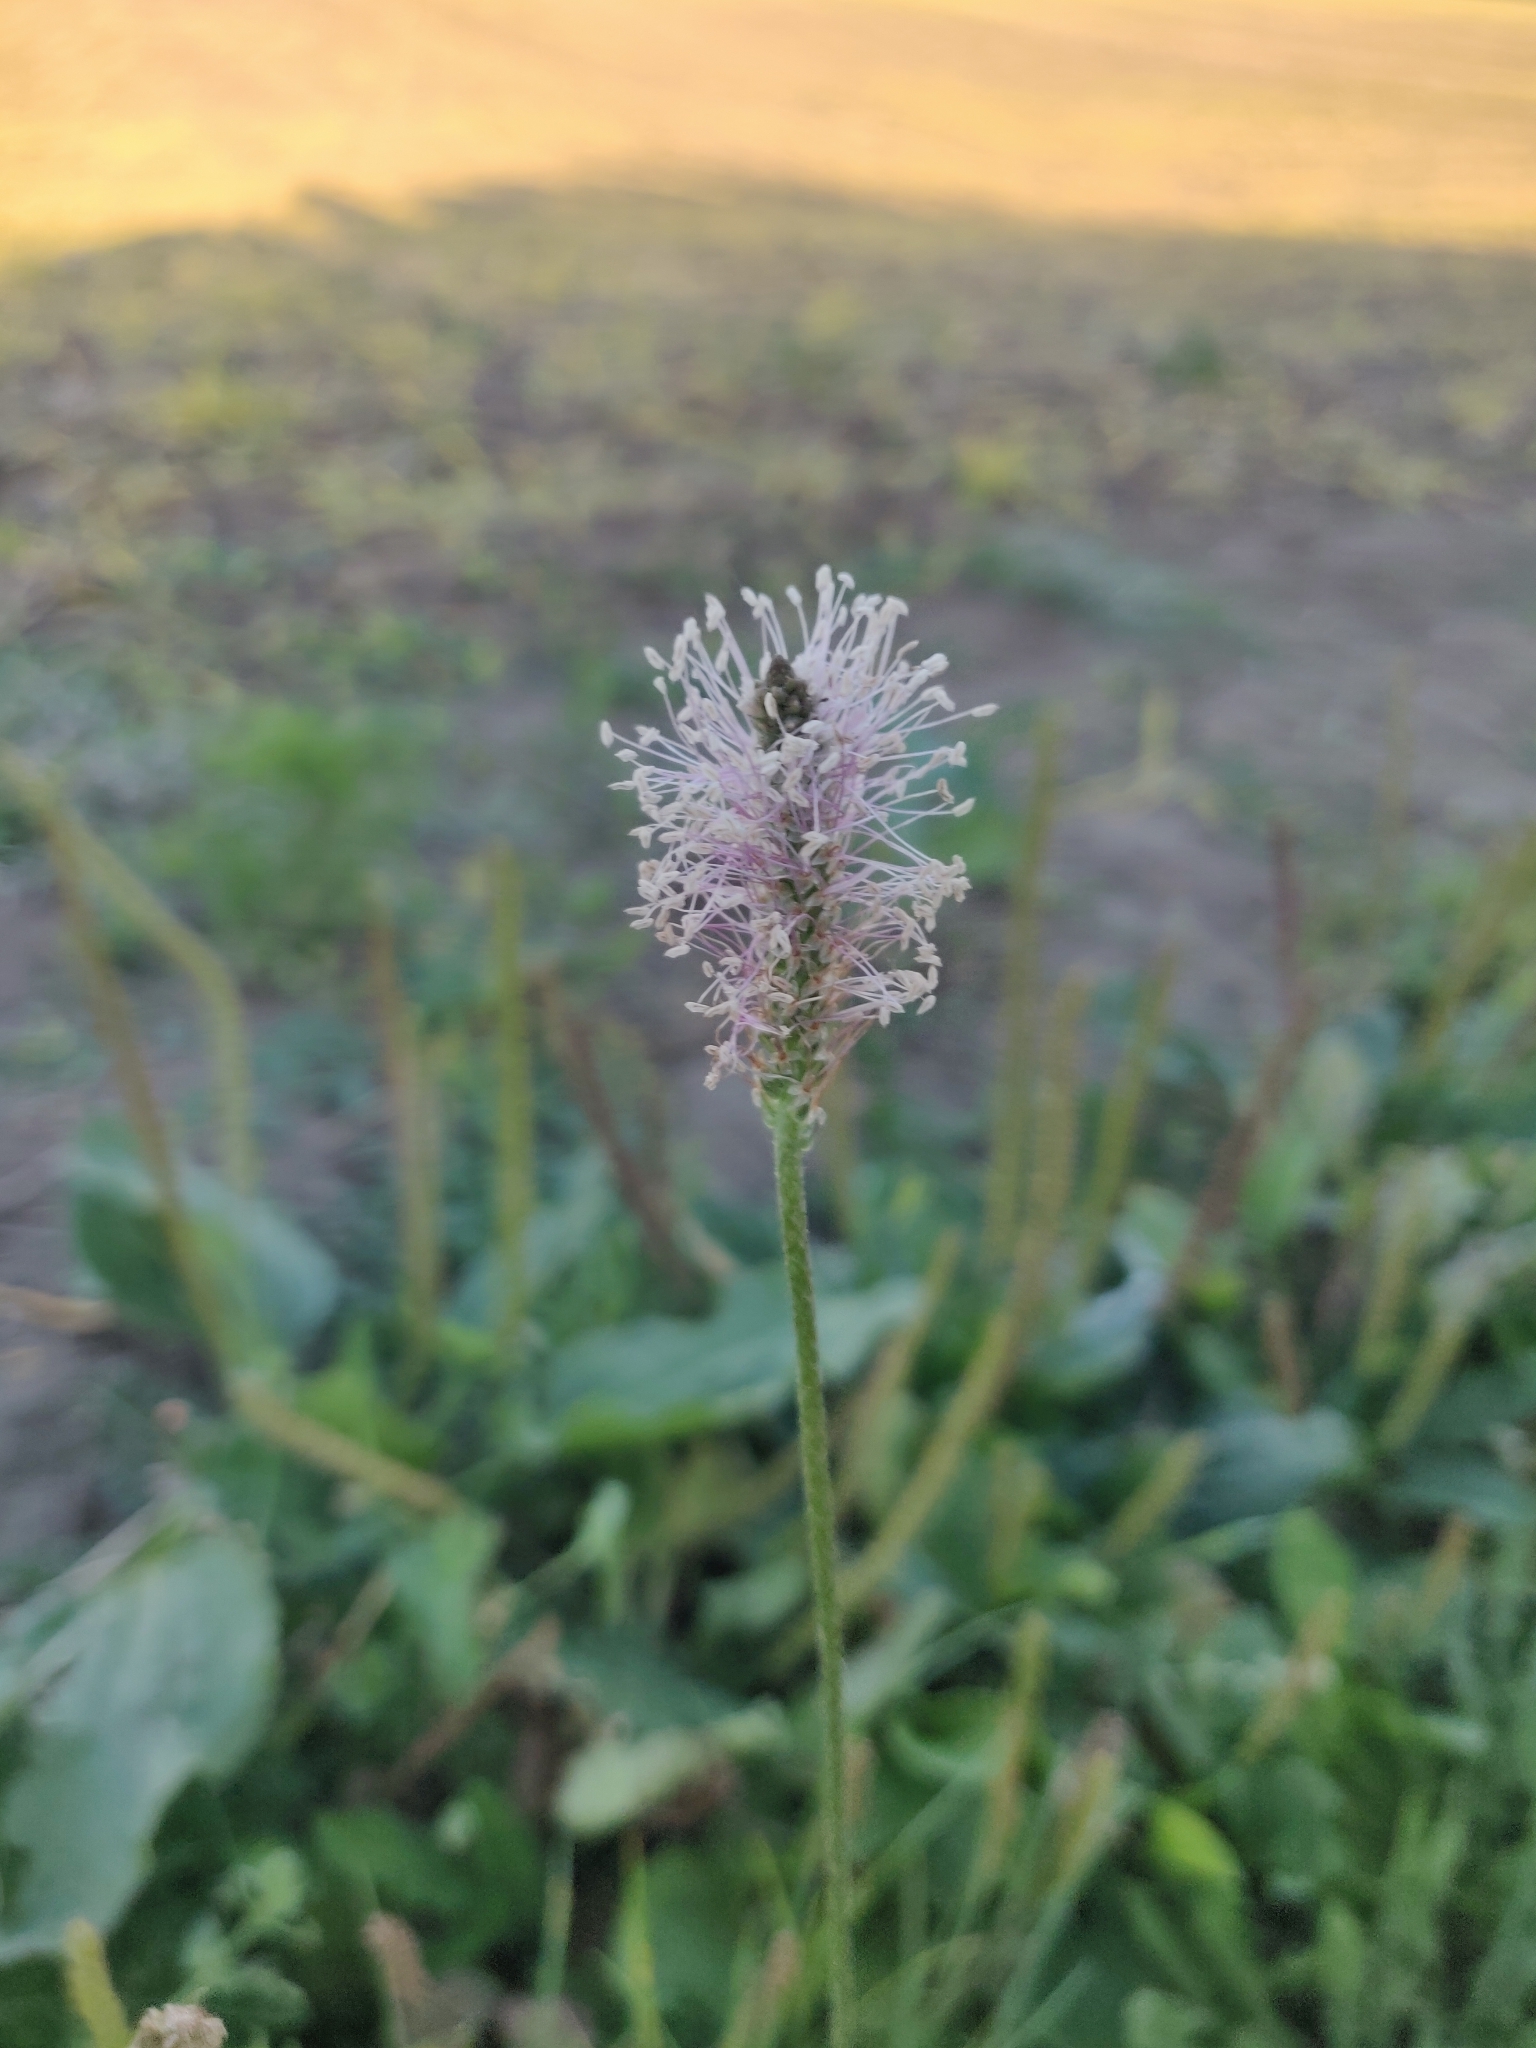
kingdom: Plantae
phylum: Tracheophyta
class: Magnoliopsida
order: Lamiales
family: Plantaginaceae
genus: Plantago
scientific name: Plantago media
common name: Hoary plantain
